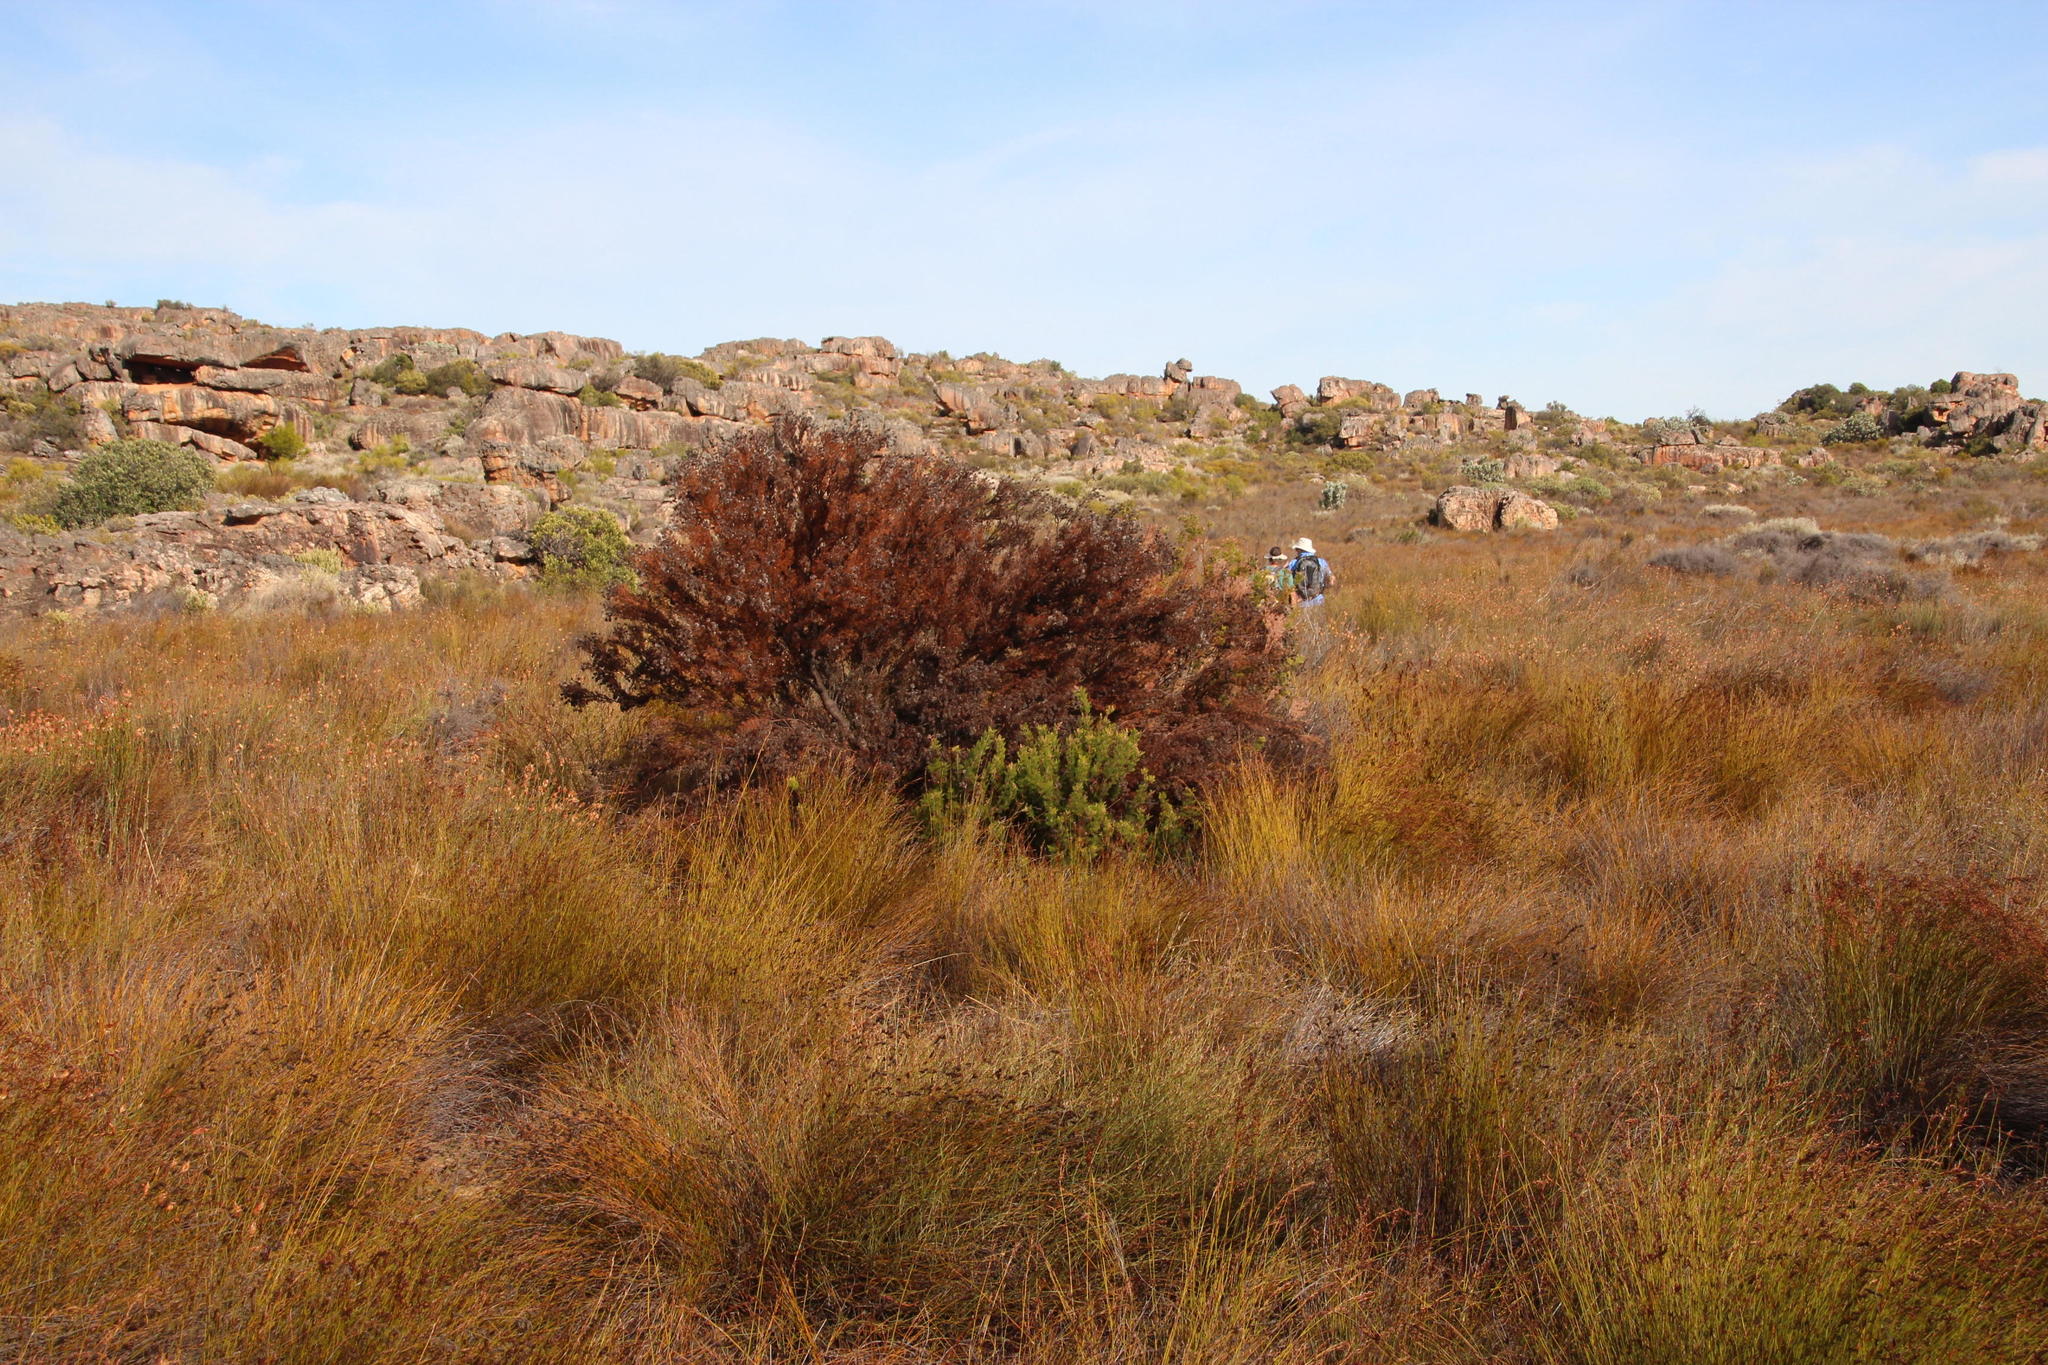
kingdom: Plantae
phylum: Tracheophyta
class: Magnoliopsida
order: Proteales
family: Proteaceae
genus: Serruria
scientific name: Serruria aitonii
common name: Marshmallow spiderhead
